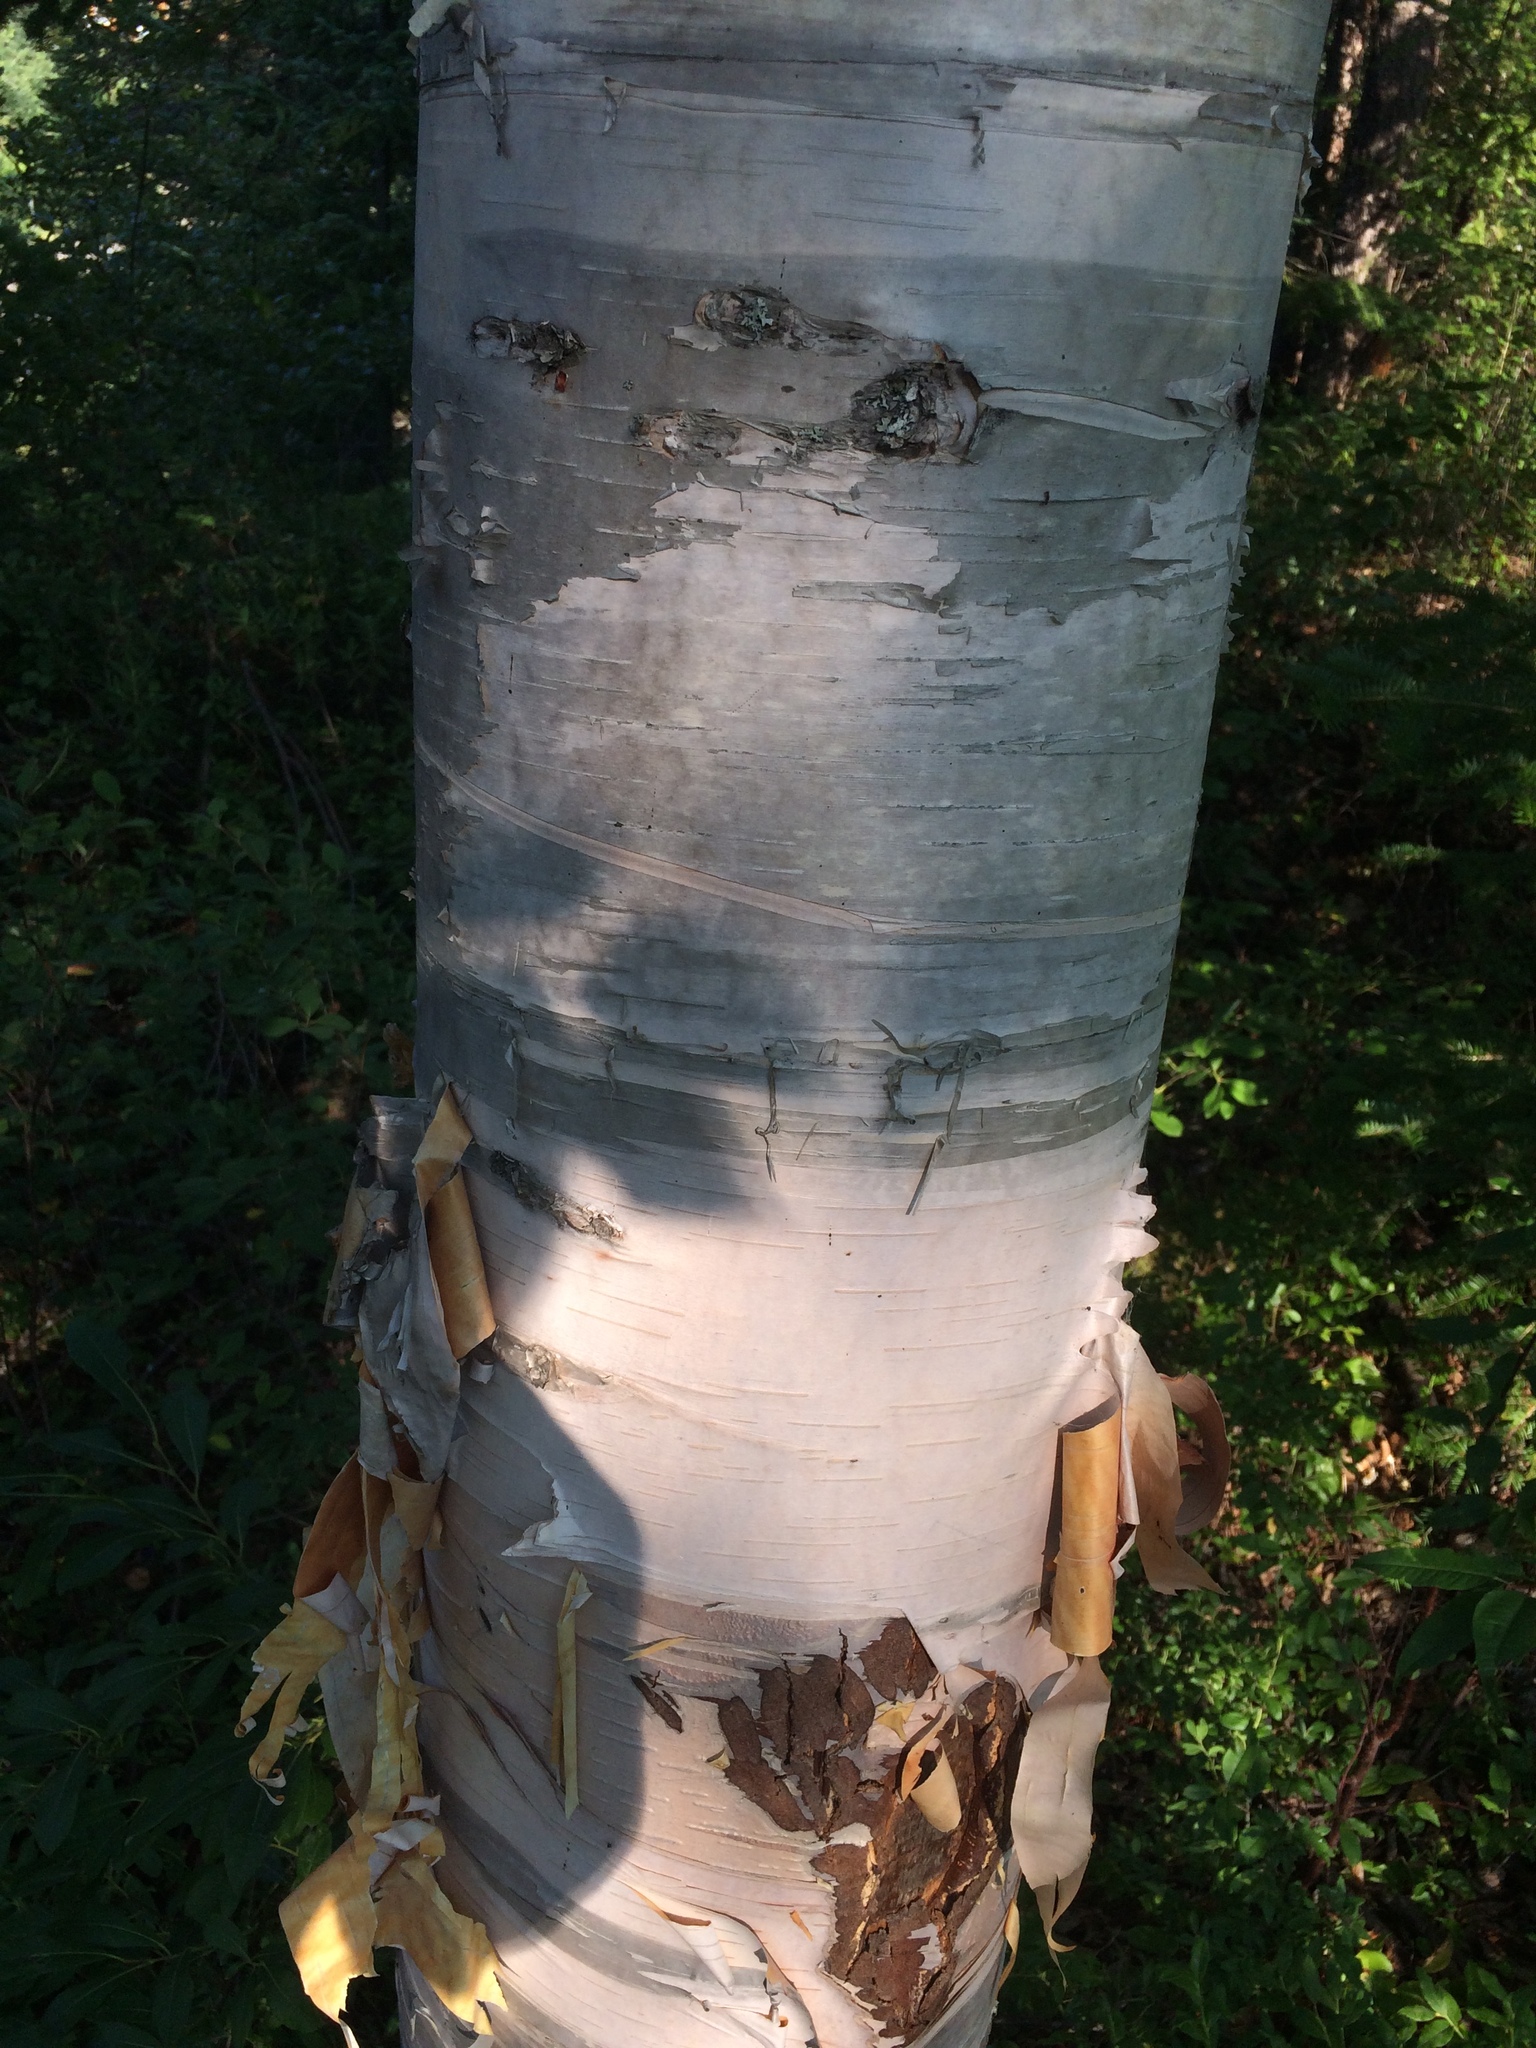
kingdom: Plantae
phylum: Tracheophyta
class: Magnoliopsida
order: Fagales
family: Betulaceae
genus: Betula
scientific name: Betula cordifolia
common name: Mountain white birch
